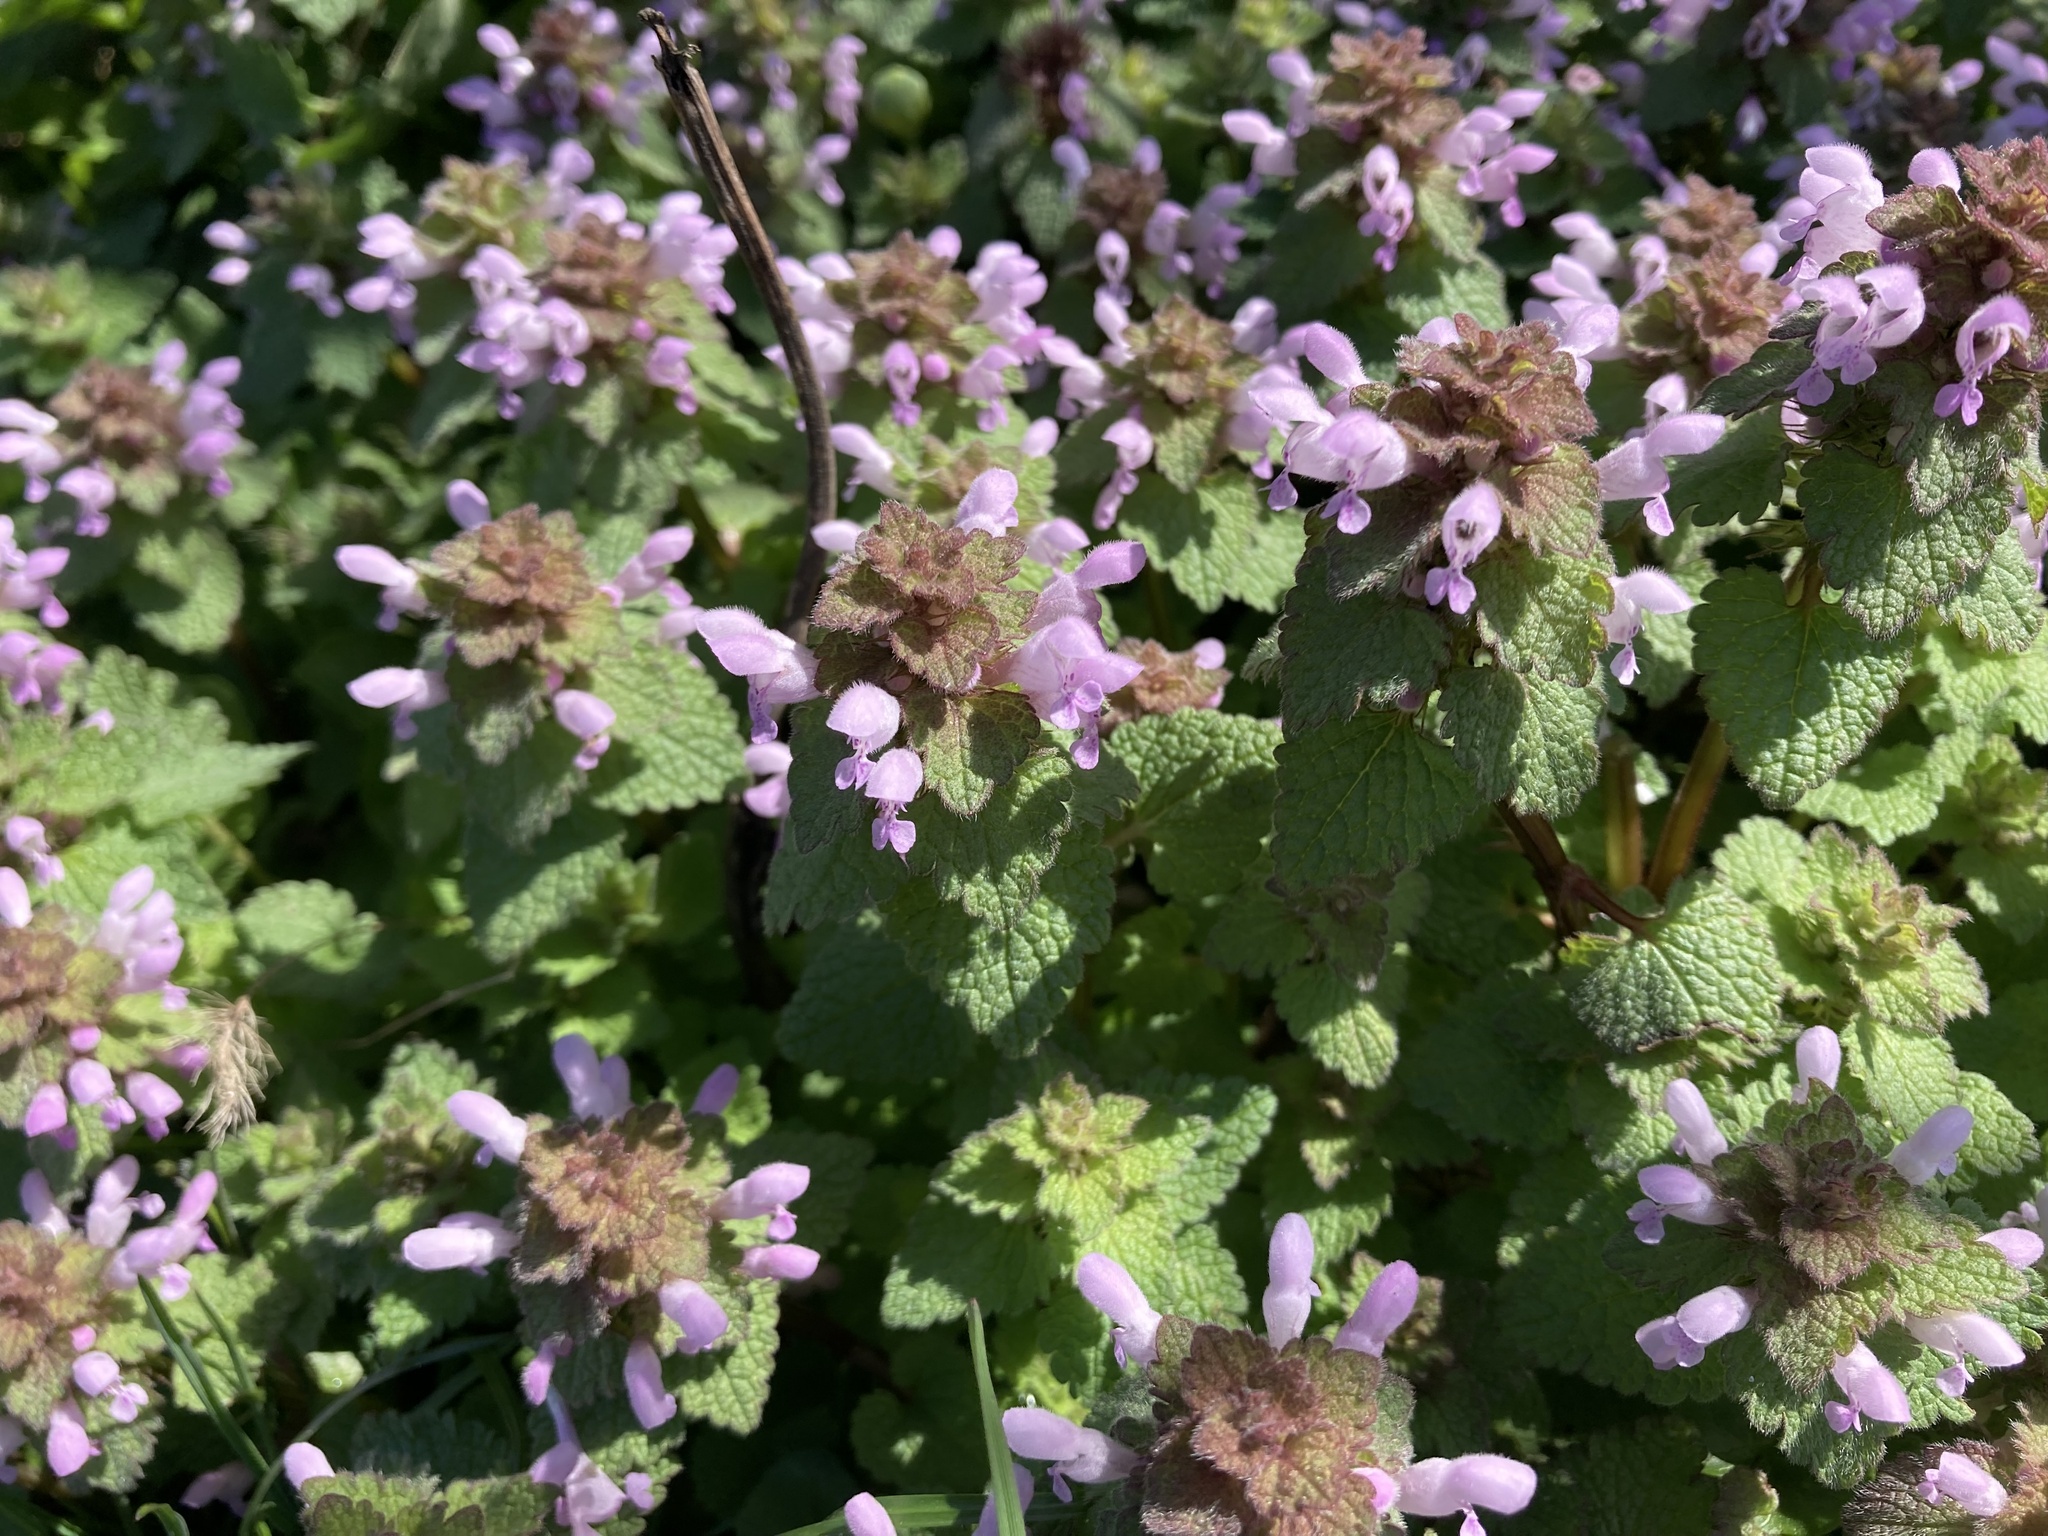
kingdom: Plantae
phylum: Tracheophyta
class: Magnoliopsida
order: Lamiales
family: Lamiaceae
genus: Lamium
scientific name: Lamium purpureum
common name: Red dead-nettle
